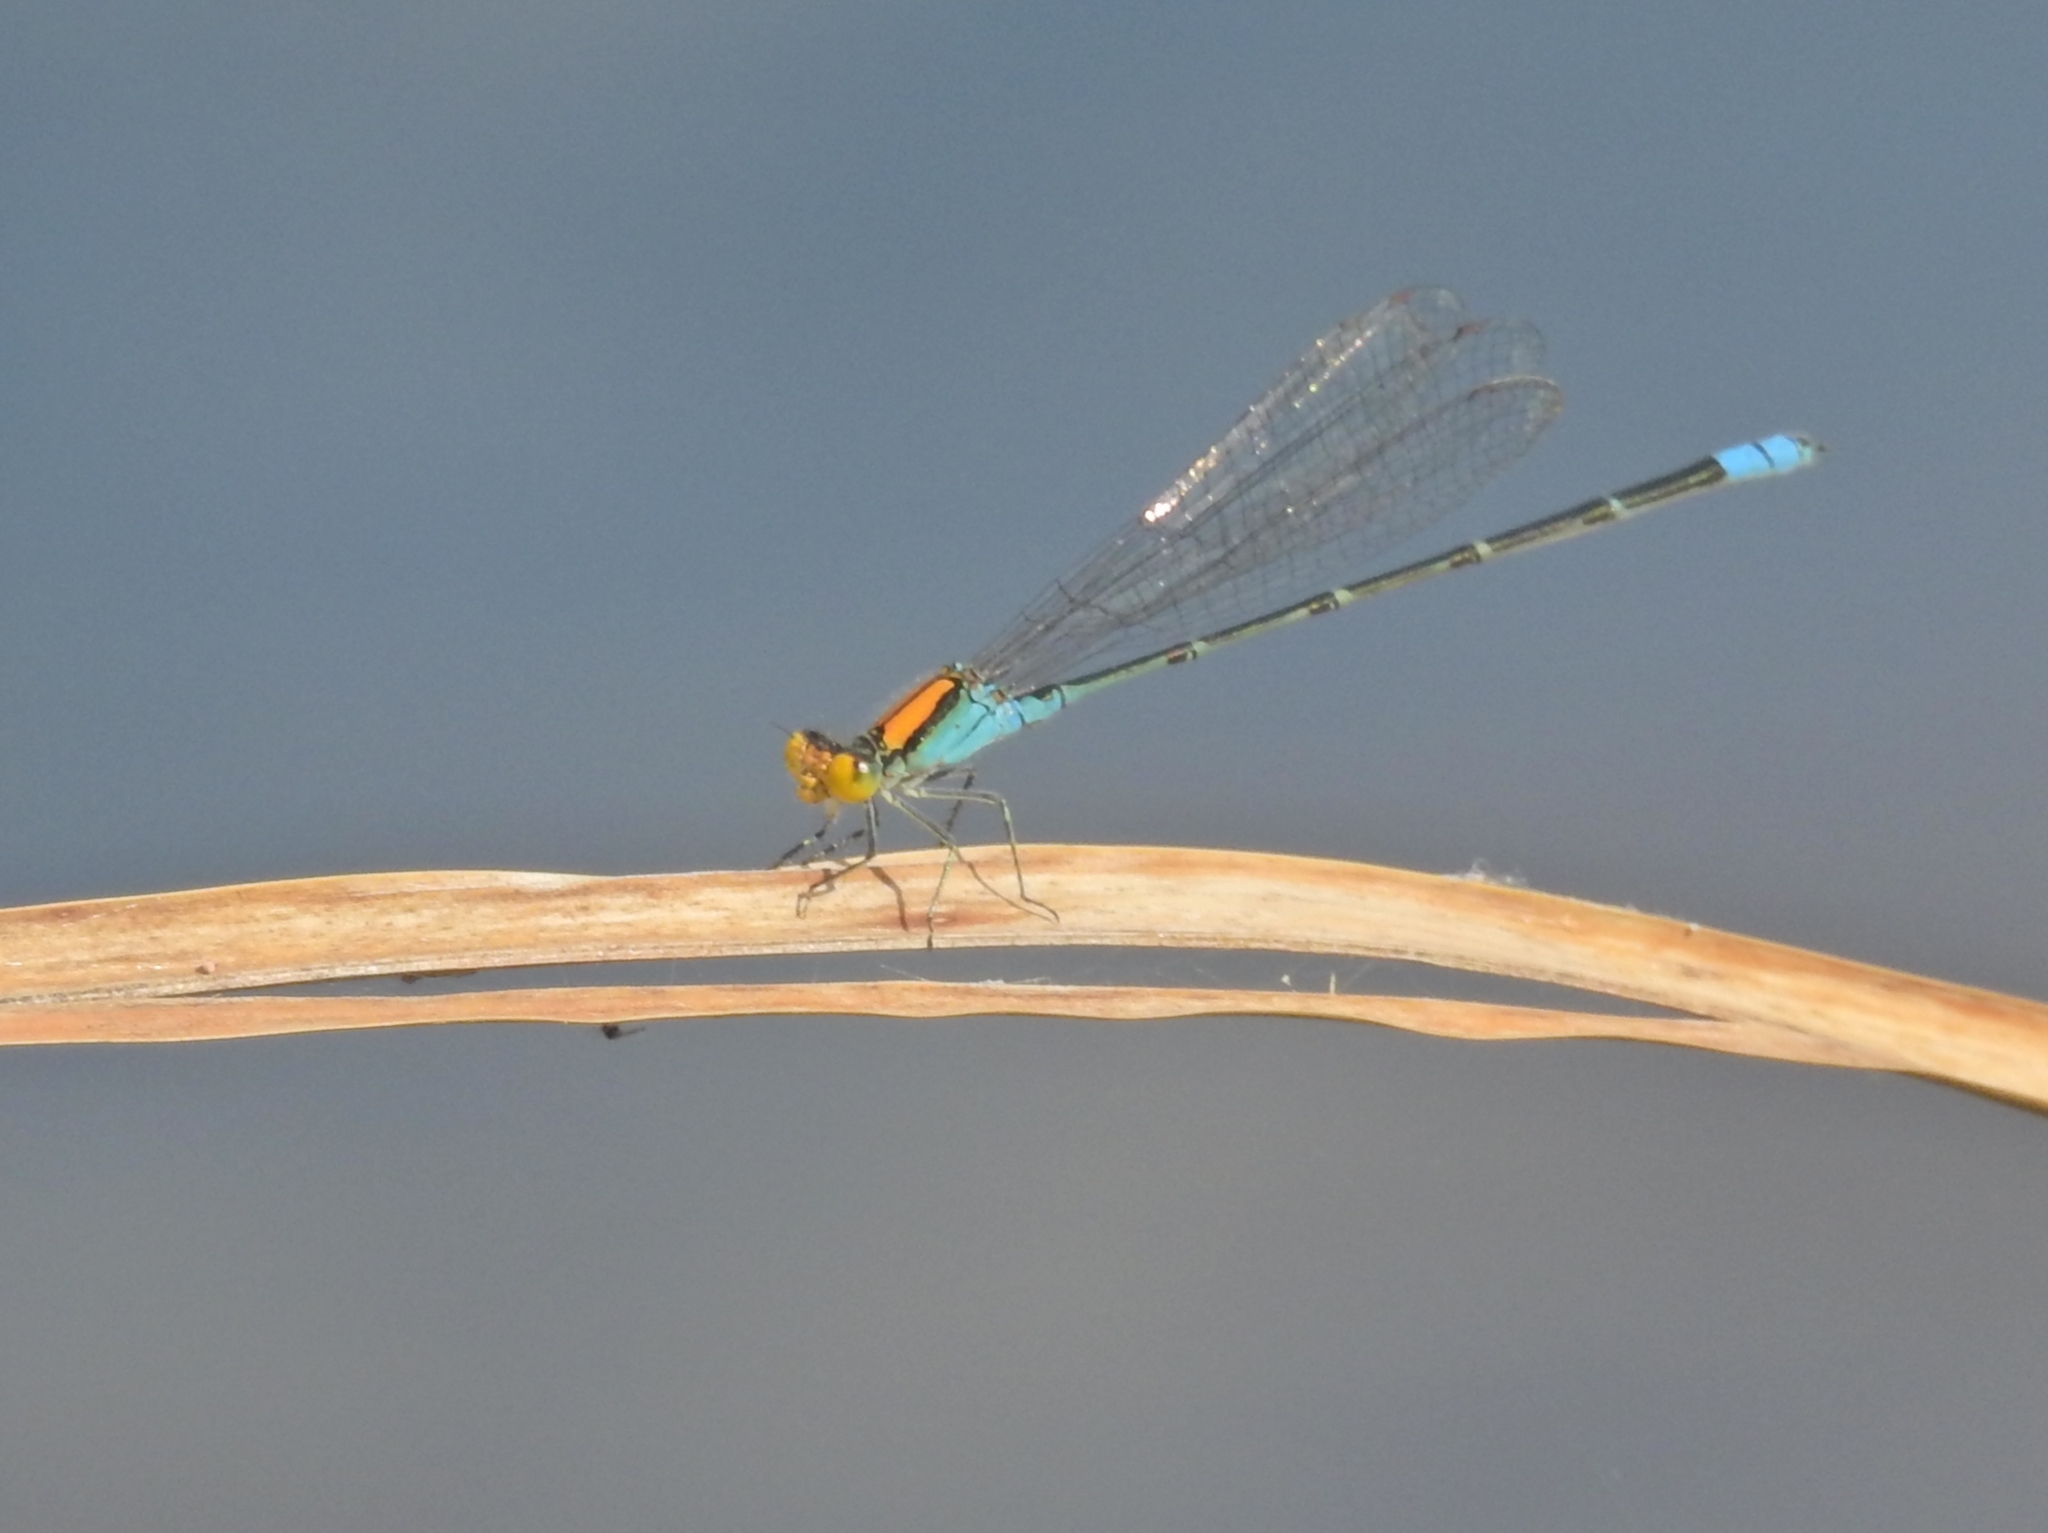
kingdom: Animalia
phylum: Arthropoda
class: Insecta
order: Odonata
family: Coenagrionidae
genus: Pseudagrion
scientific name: Pseudagrion aureofrons
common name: Gold-fronted riverdamsel
